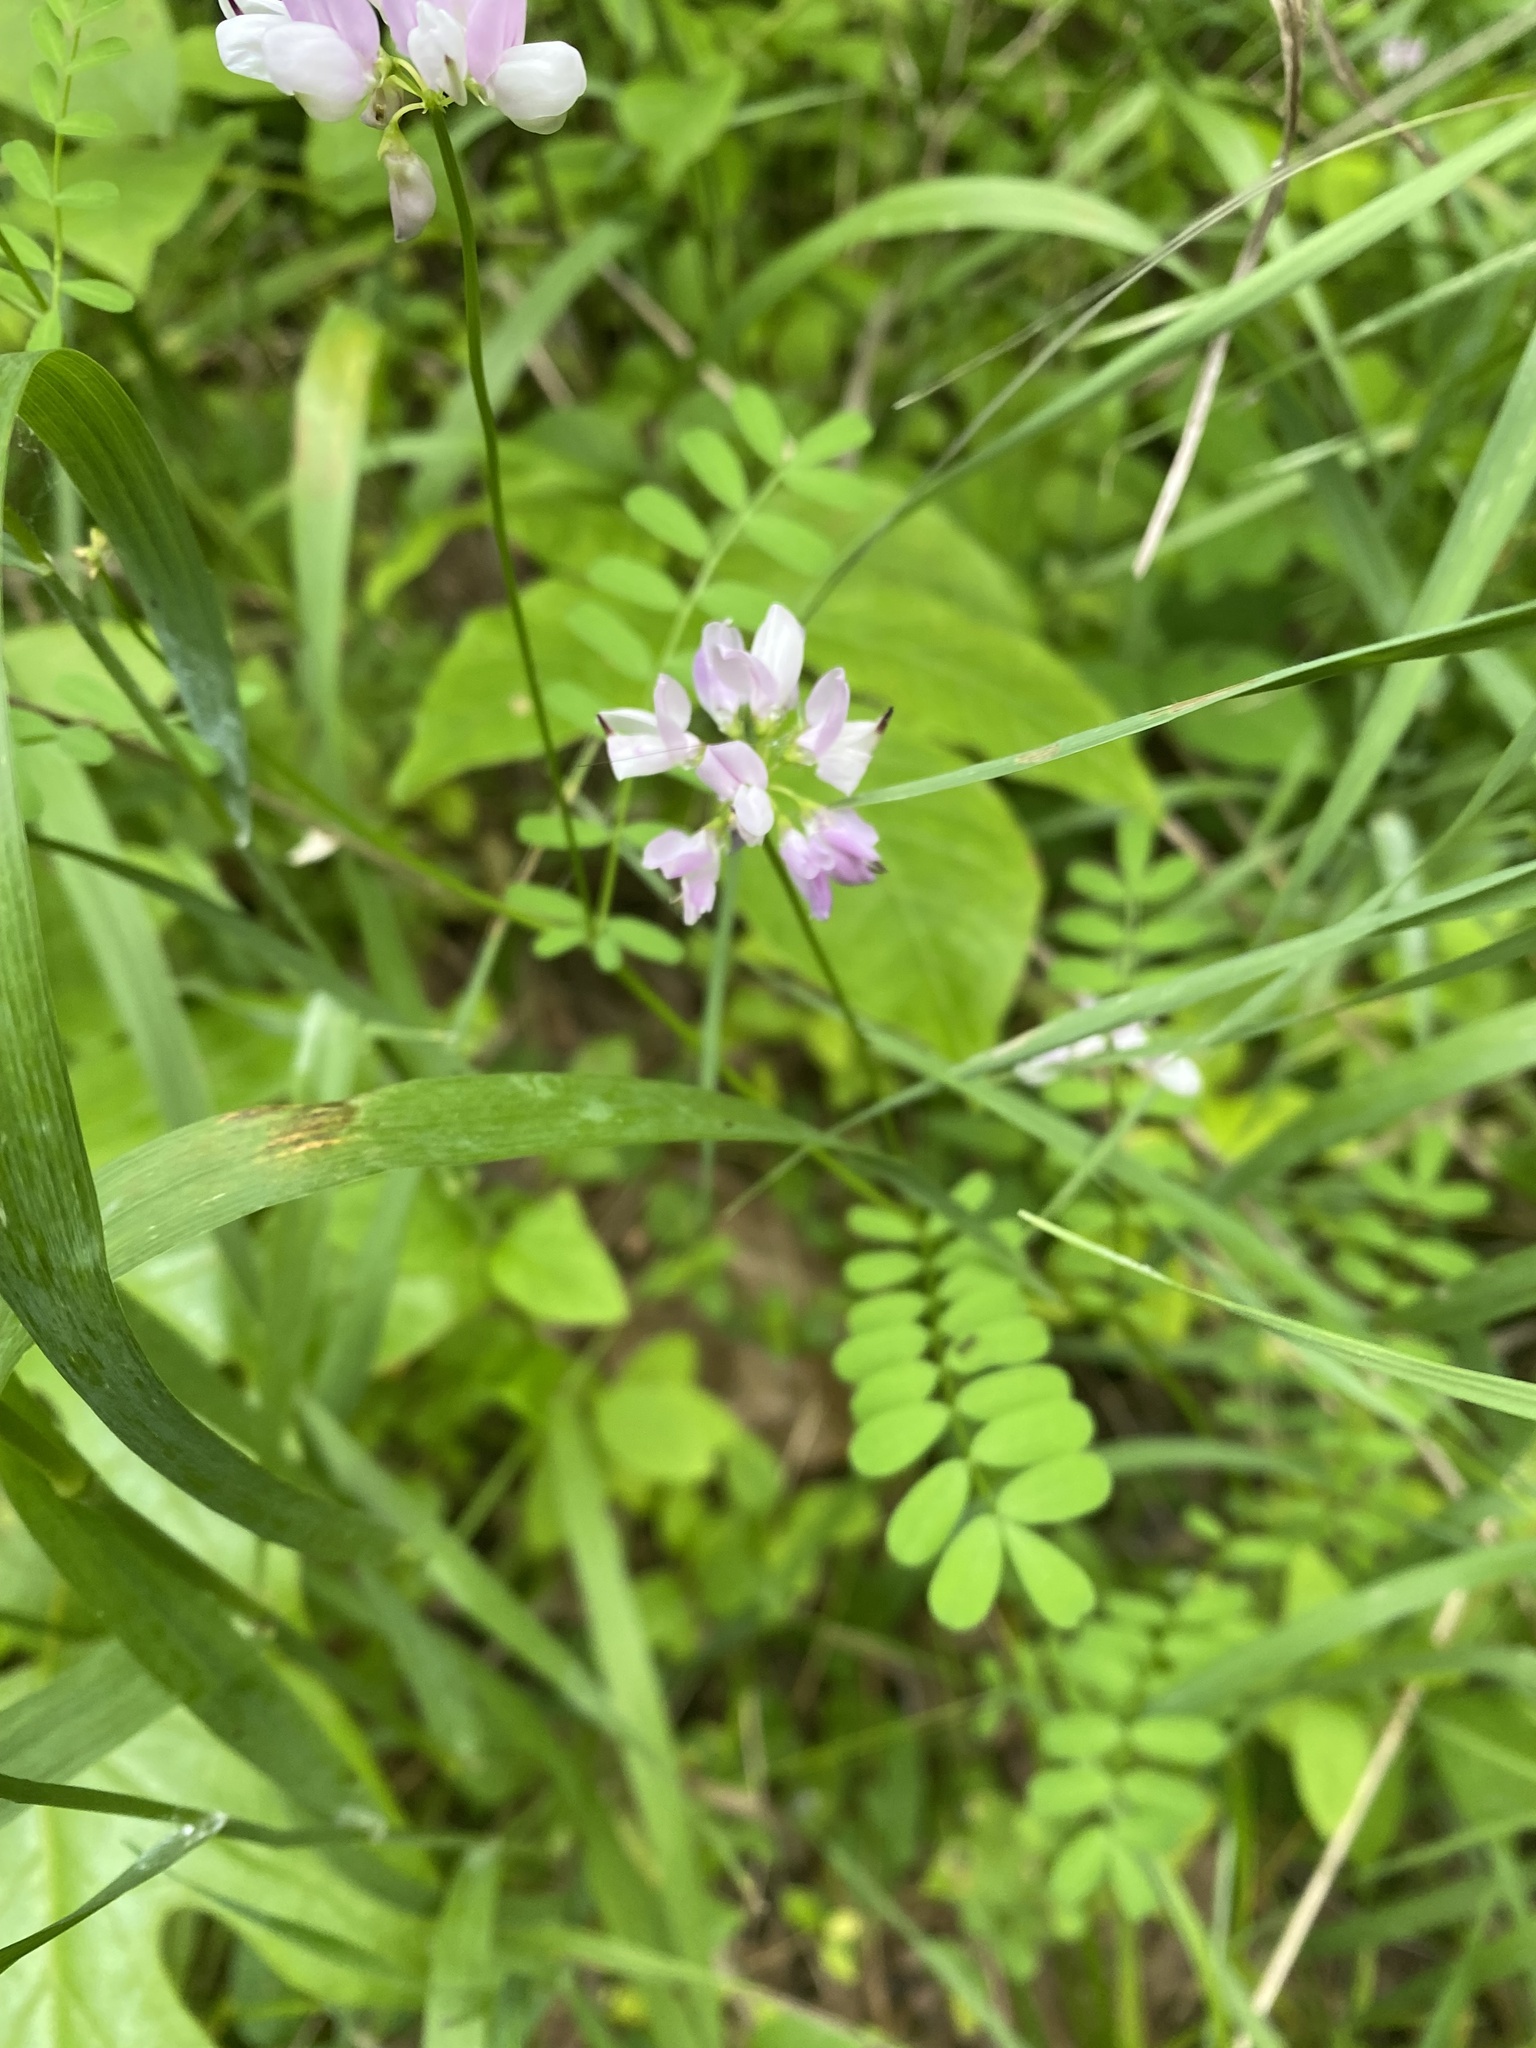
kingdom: Plantae
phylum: Tracheophyta
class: Magnoliopsida
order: Fabales
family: Fabaceae
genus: Coronilla
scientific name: Coronilla varia
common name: Crownvetch
